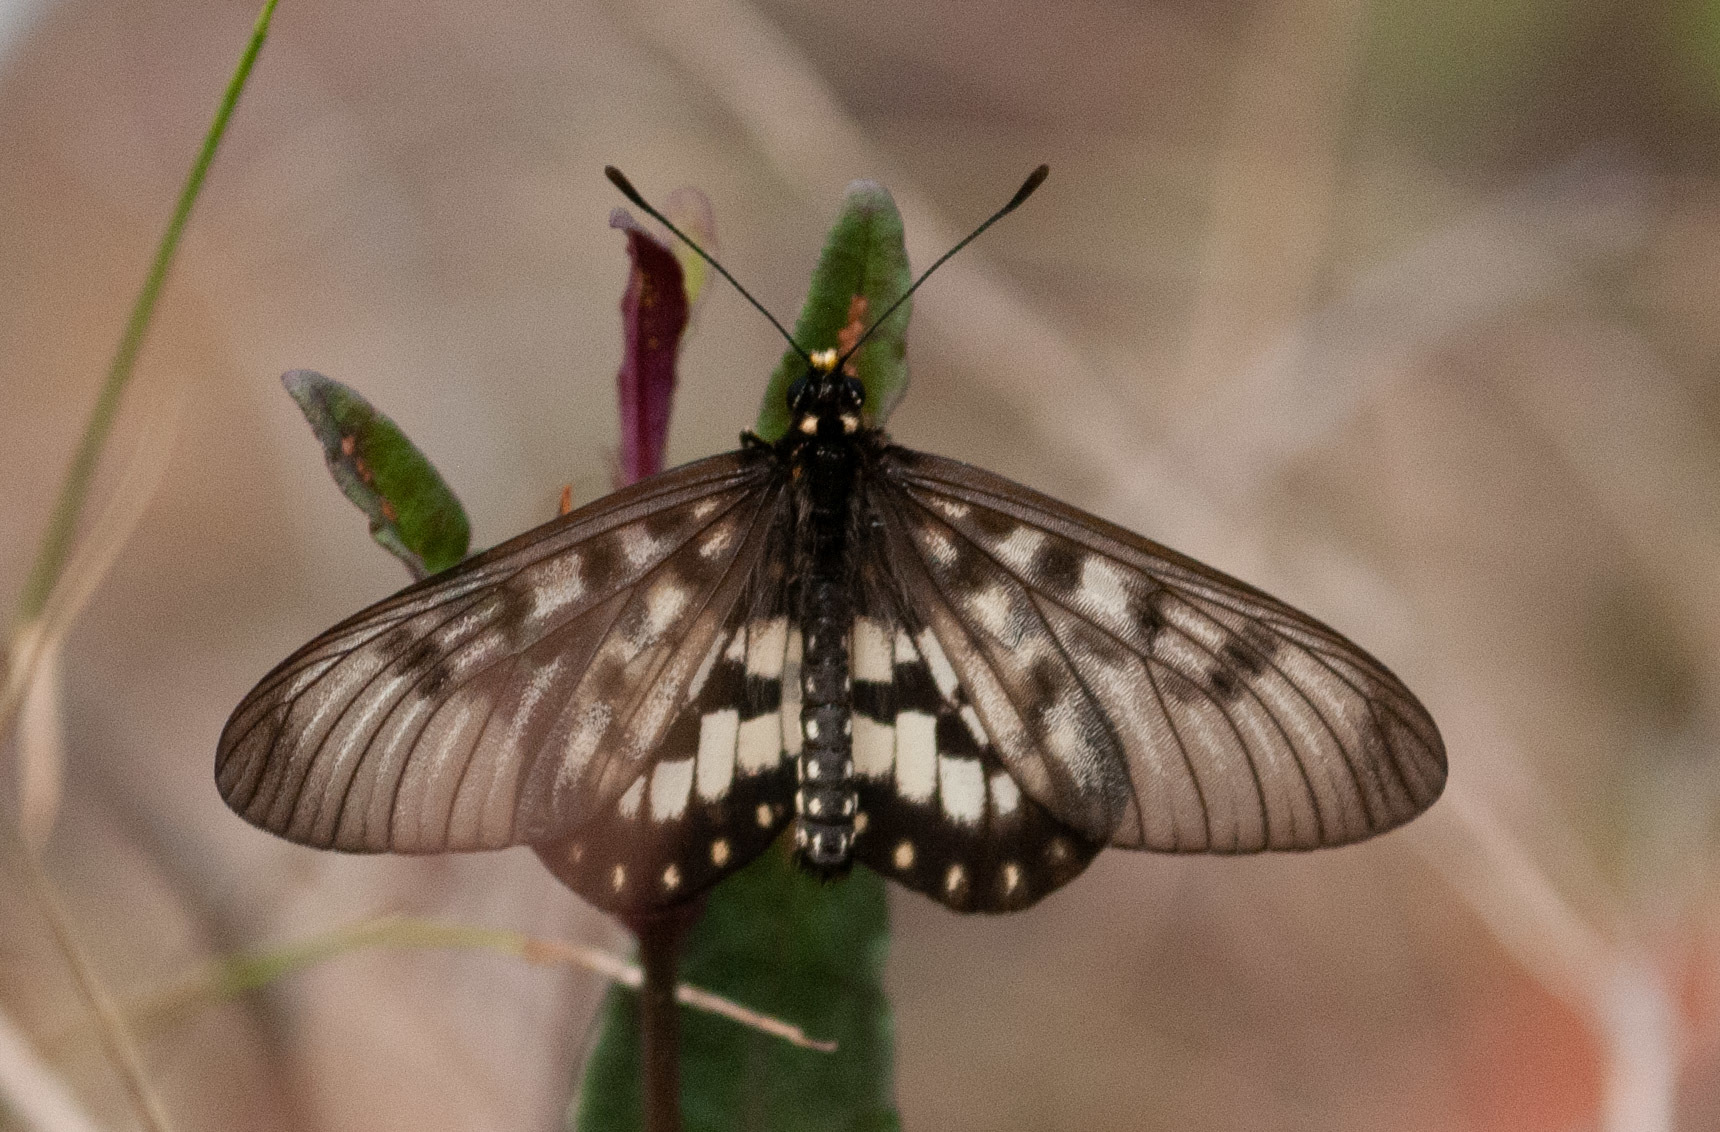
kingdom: Animalia
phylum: Arthropoda
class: Insecta
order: Lepidoptera
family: Nymphalidae
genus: Acraea
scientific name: Acraea andromacha
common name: Glasswing
